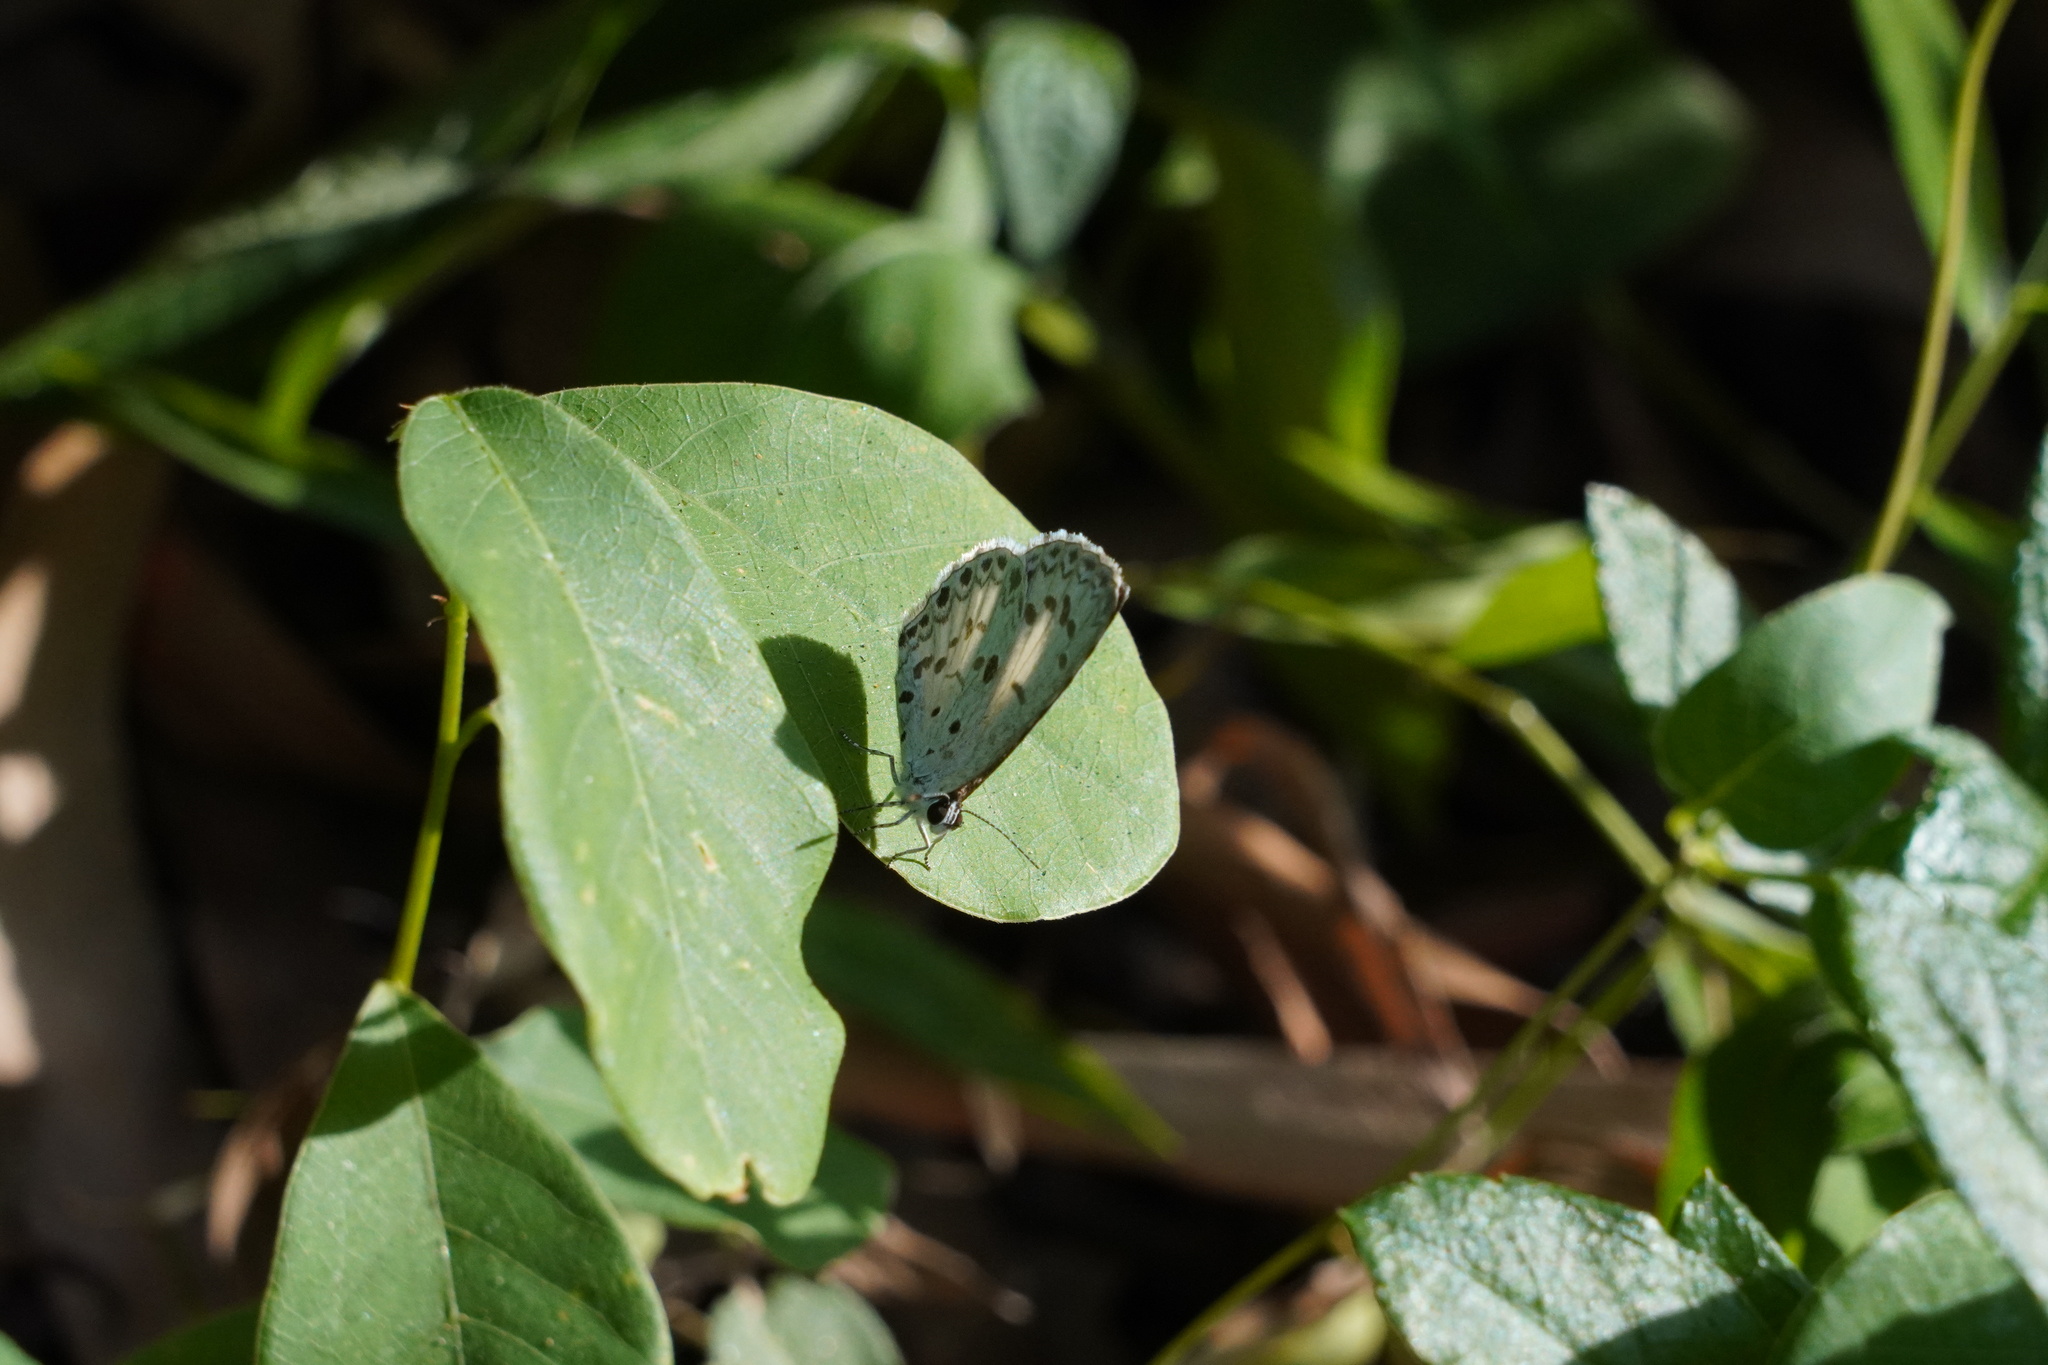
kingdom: Animalia
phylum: Arthropoda
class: Insecta
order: Lepidoptera
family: Lycaenidae
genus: Acytolepis
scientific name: Acytolepis puspa
